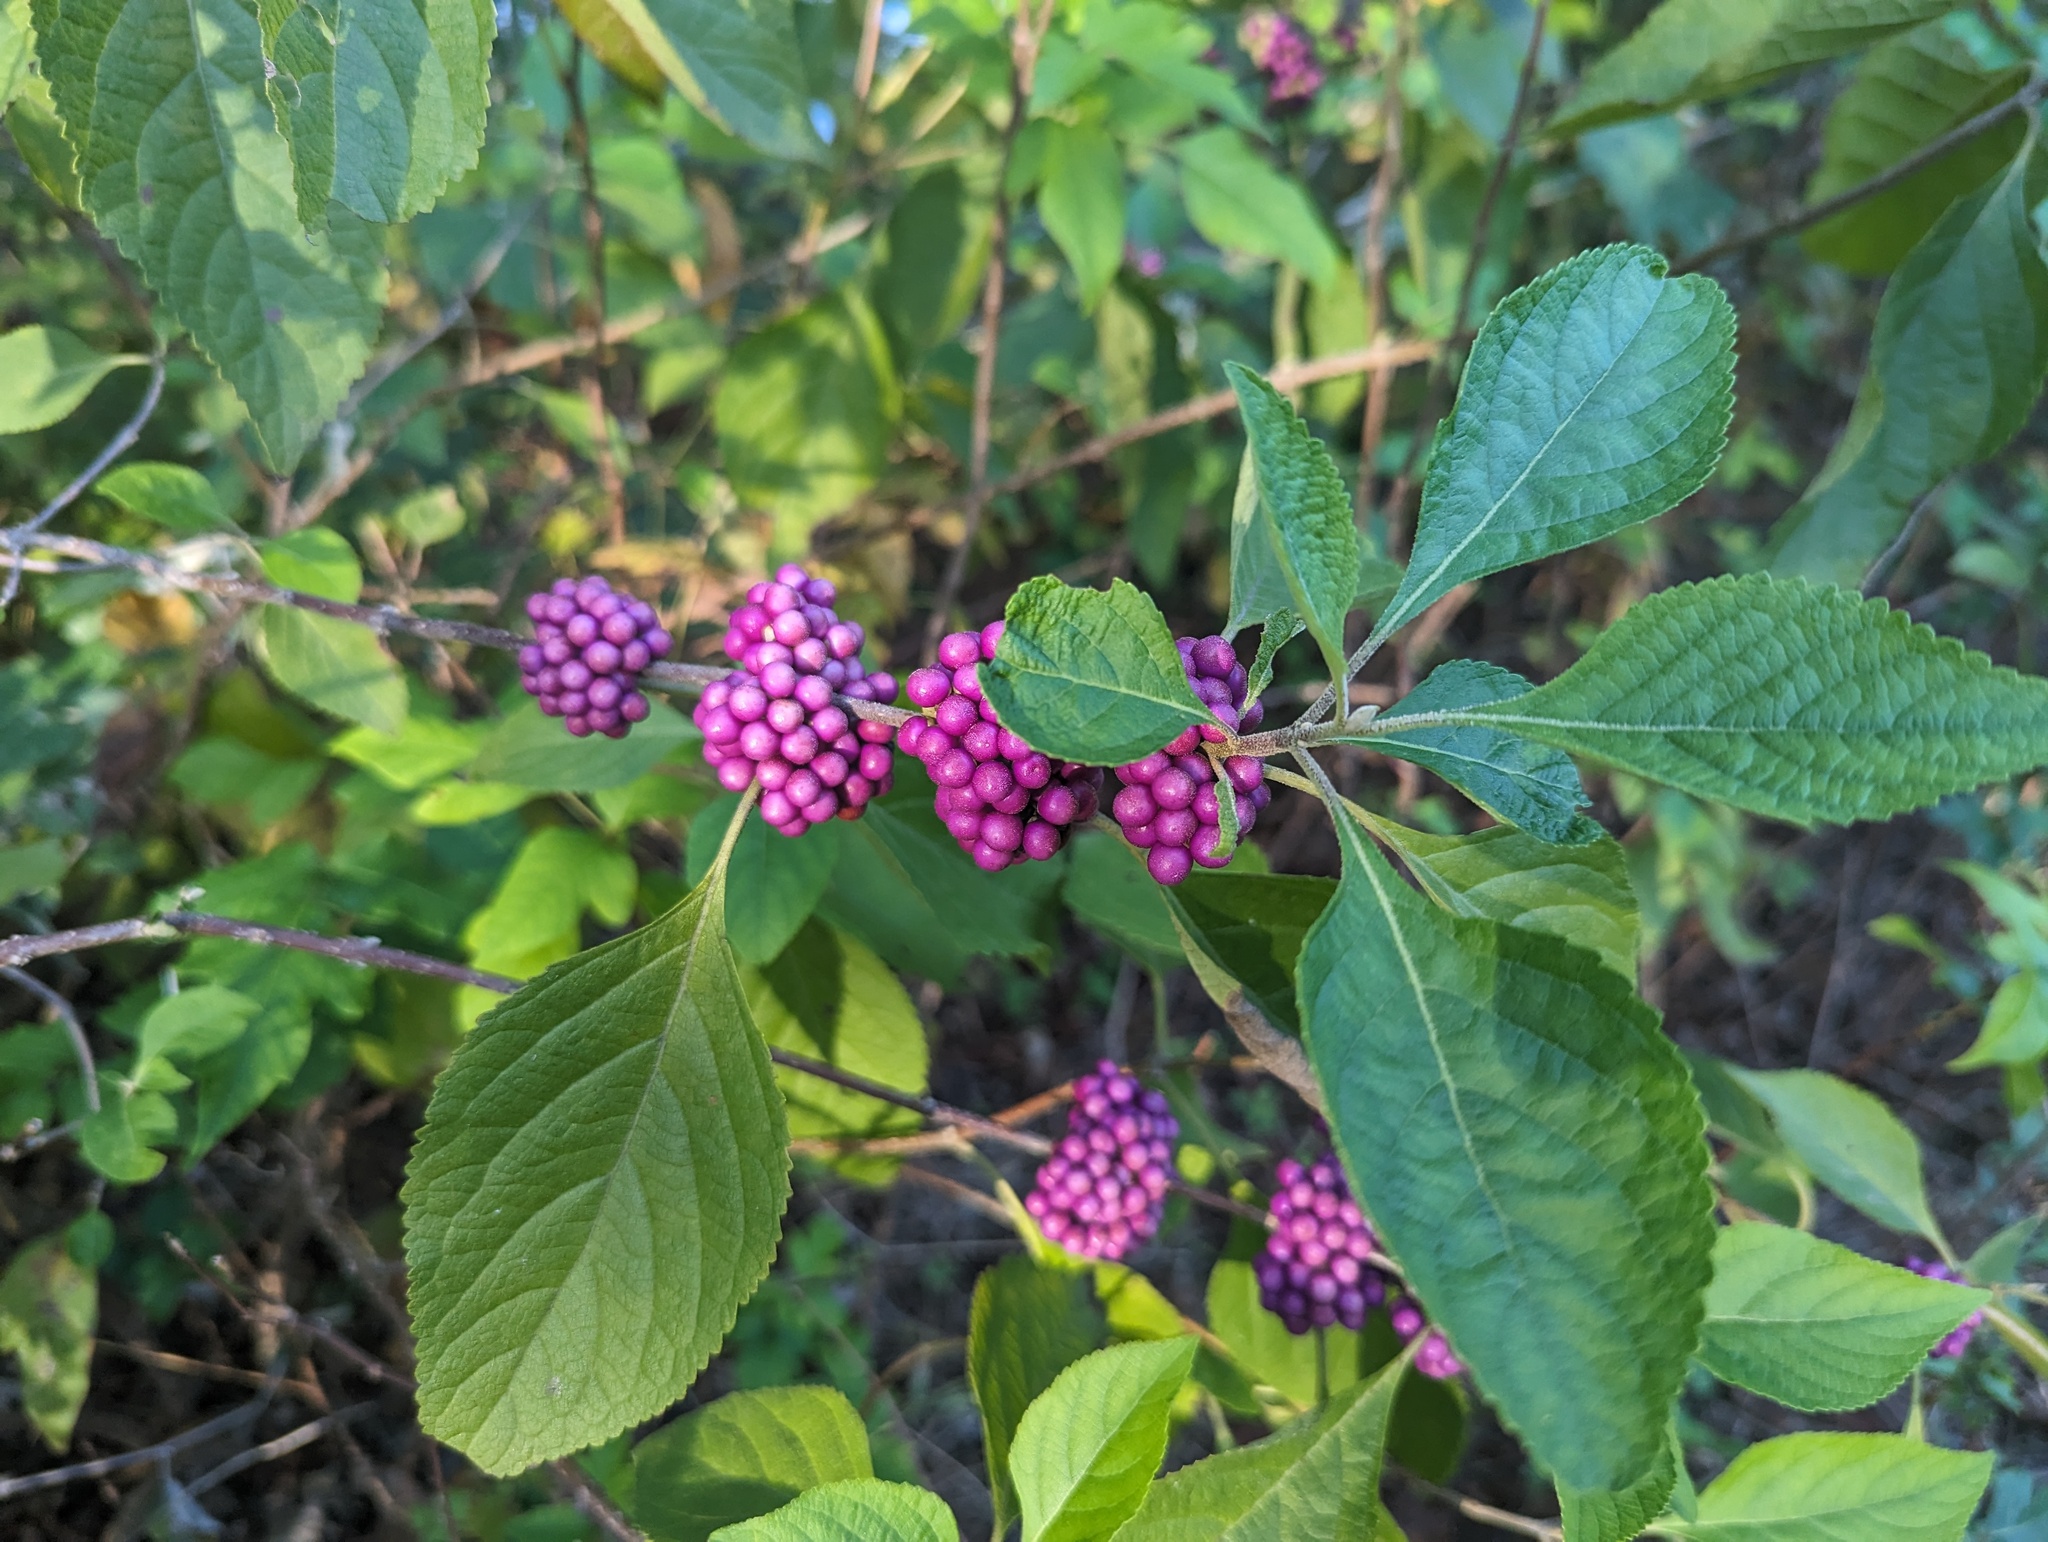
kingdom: Plantae
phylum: Tracheophyta
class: Magnoliopsida
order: Lamiales
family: Lamiaceae
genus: Callicarpa
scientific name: Callicarpa americana
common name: American beautyberry
